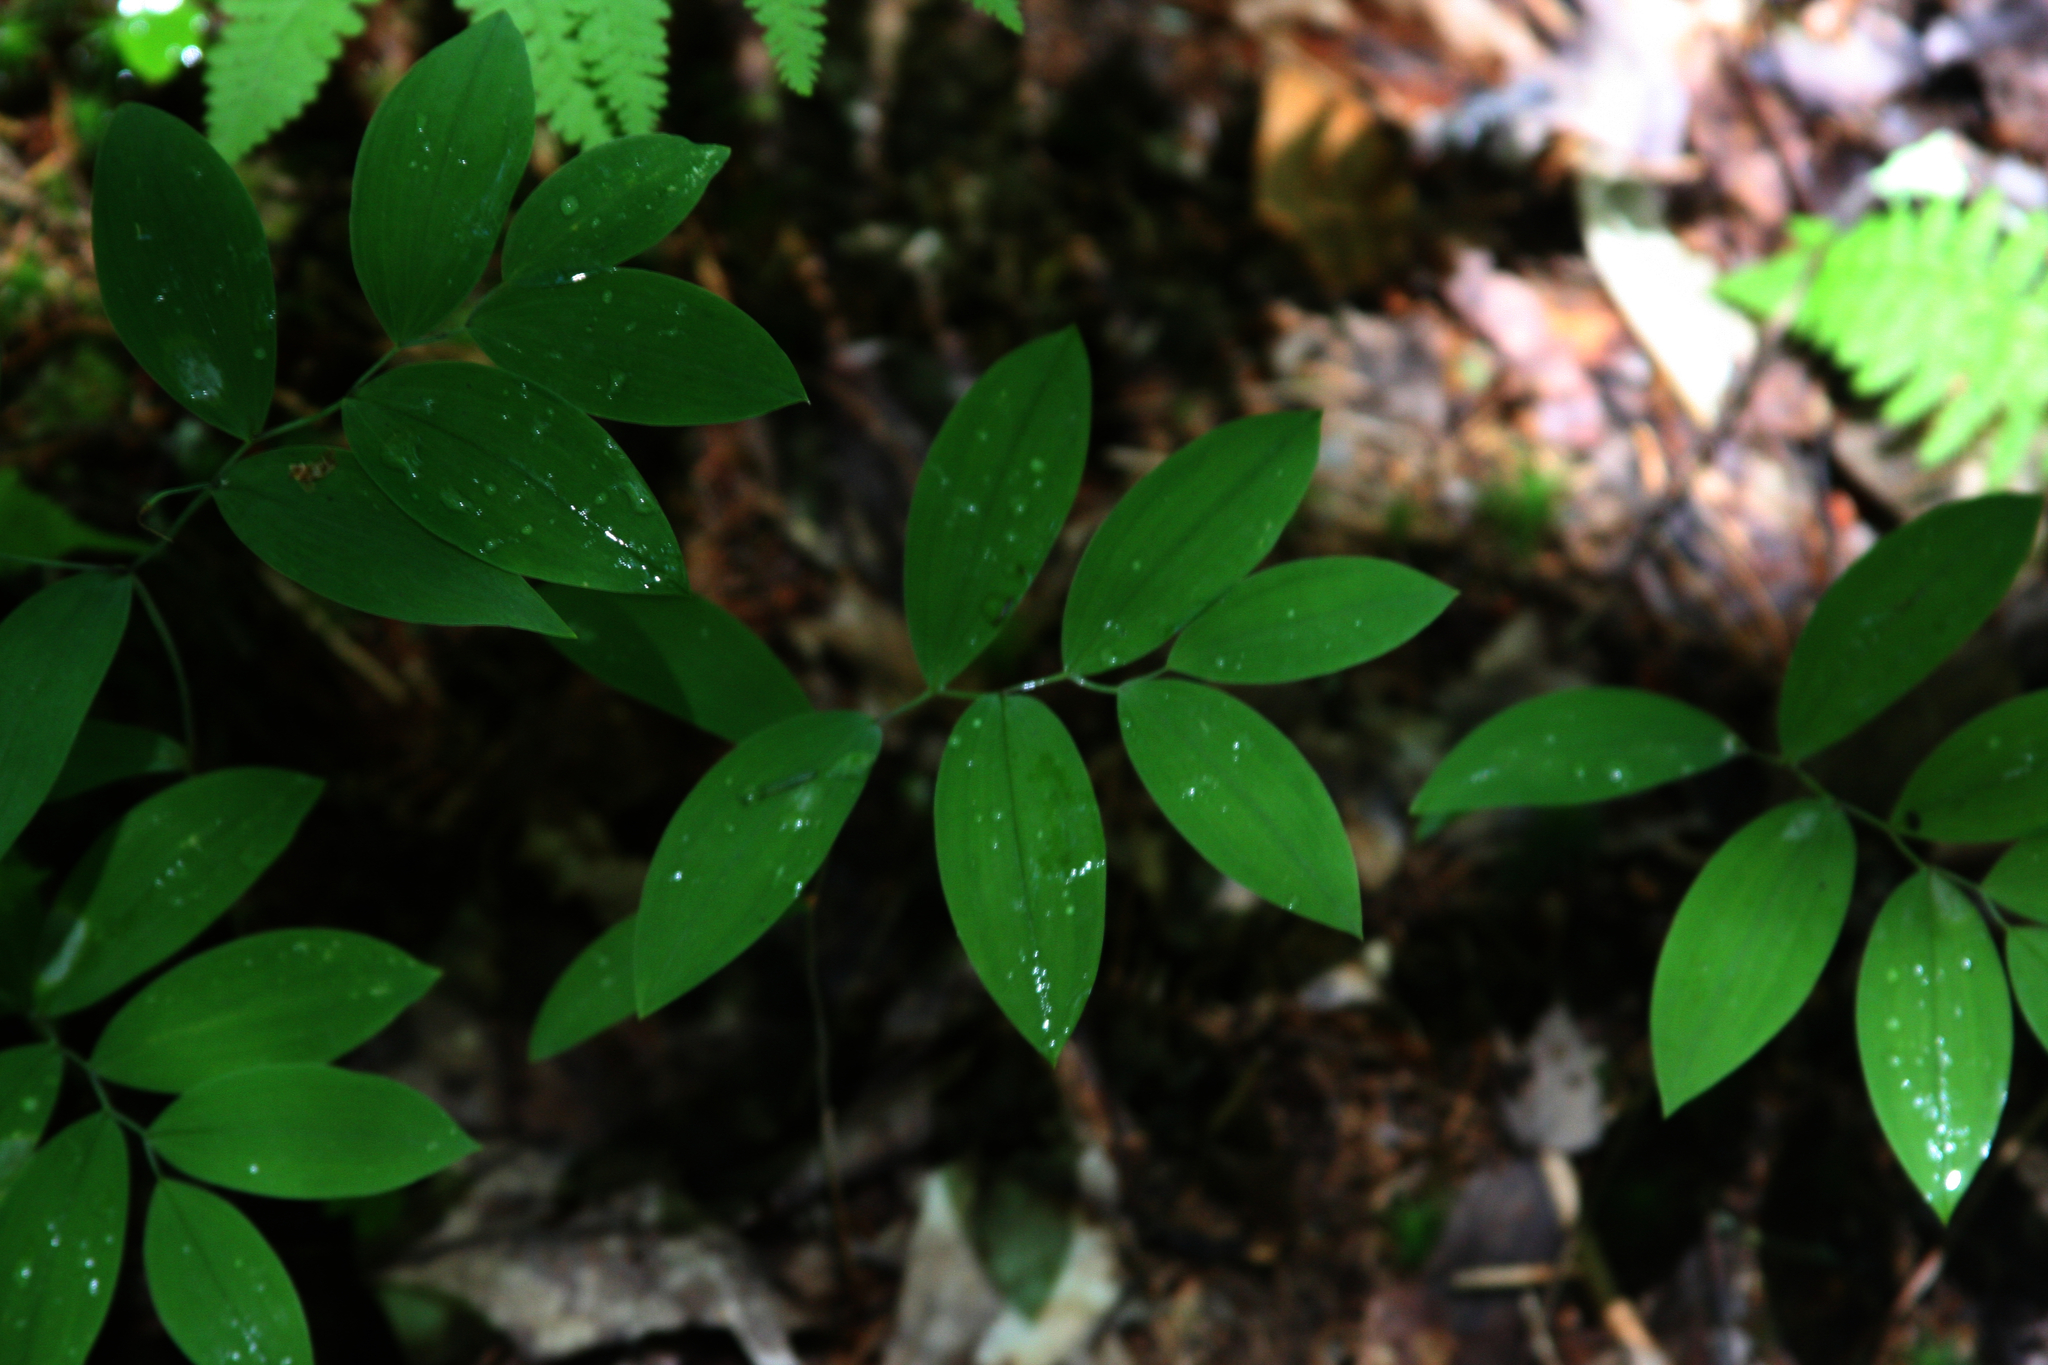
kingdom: Plantae
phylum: Tracheophyta
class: Liliopsida
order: Liliales
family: Colchicaceae
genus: Uvularia
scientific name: Uvularia sessilifolia
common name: Straw-lily
